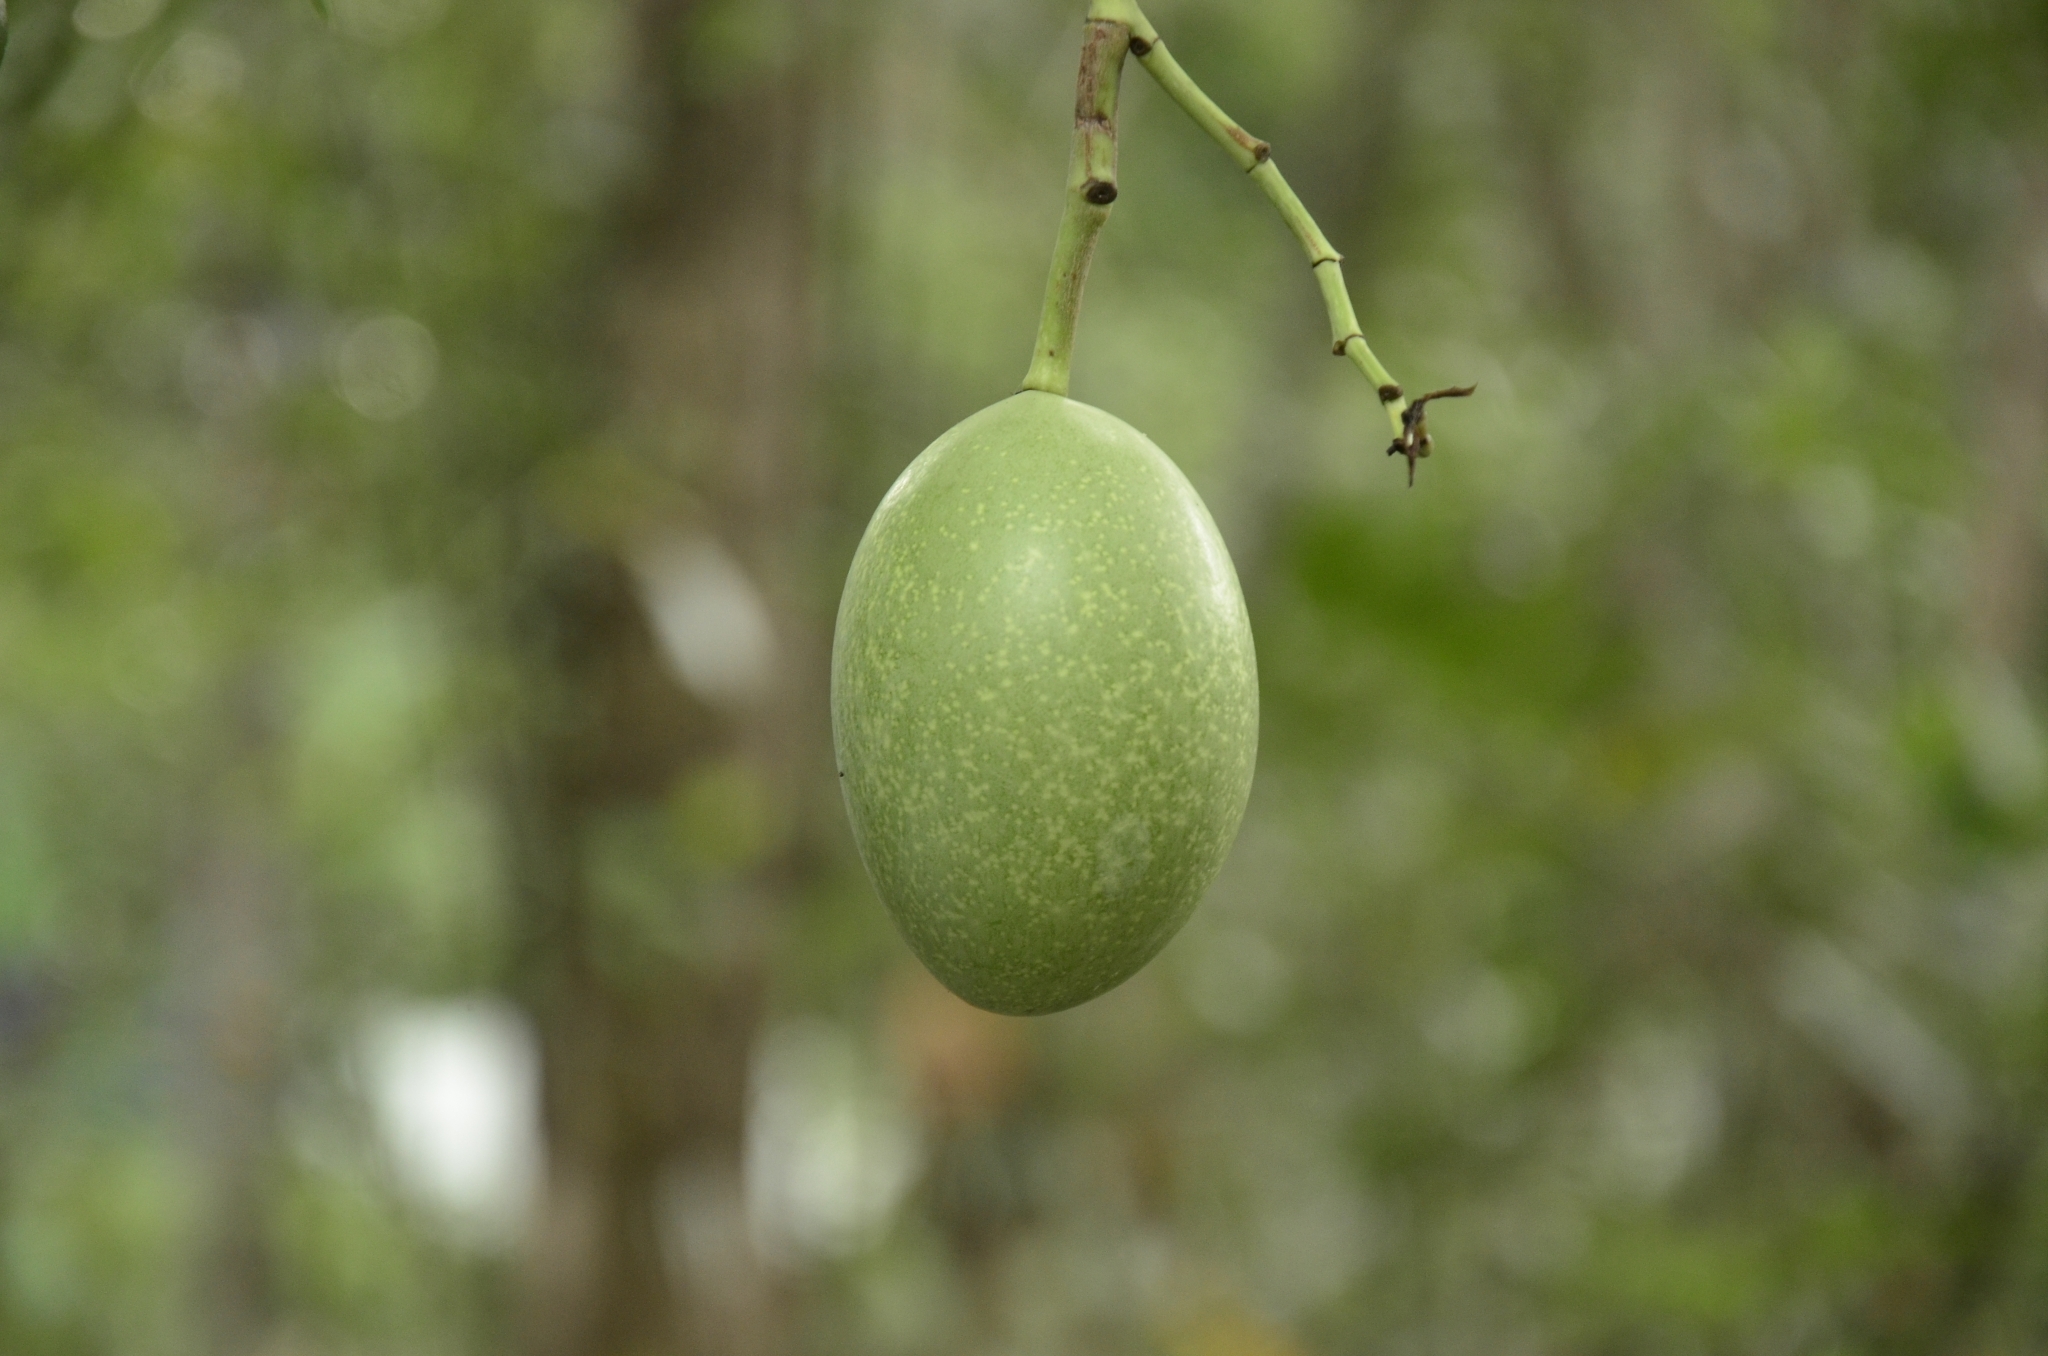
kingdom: Plantae
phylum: Tracheophyta
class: Magnoliopsida
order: Gentianales
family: Apocynaceae
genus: Cerbera
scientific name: Cerbera odollam
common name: Pong-pong
